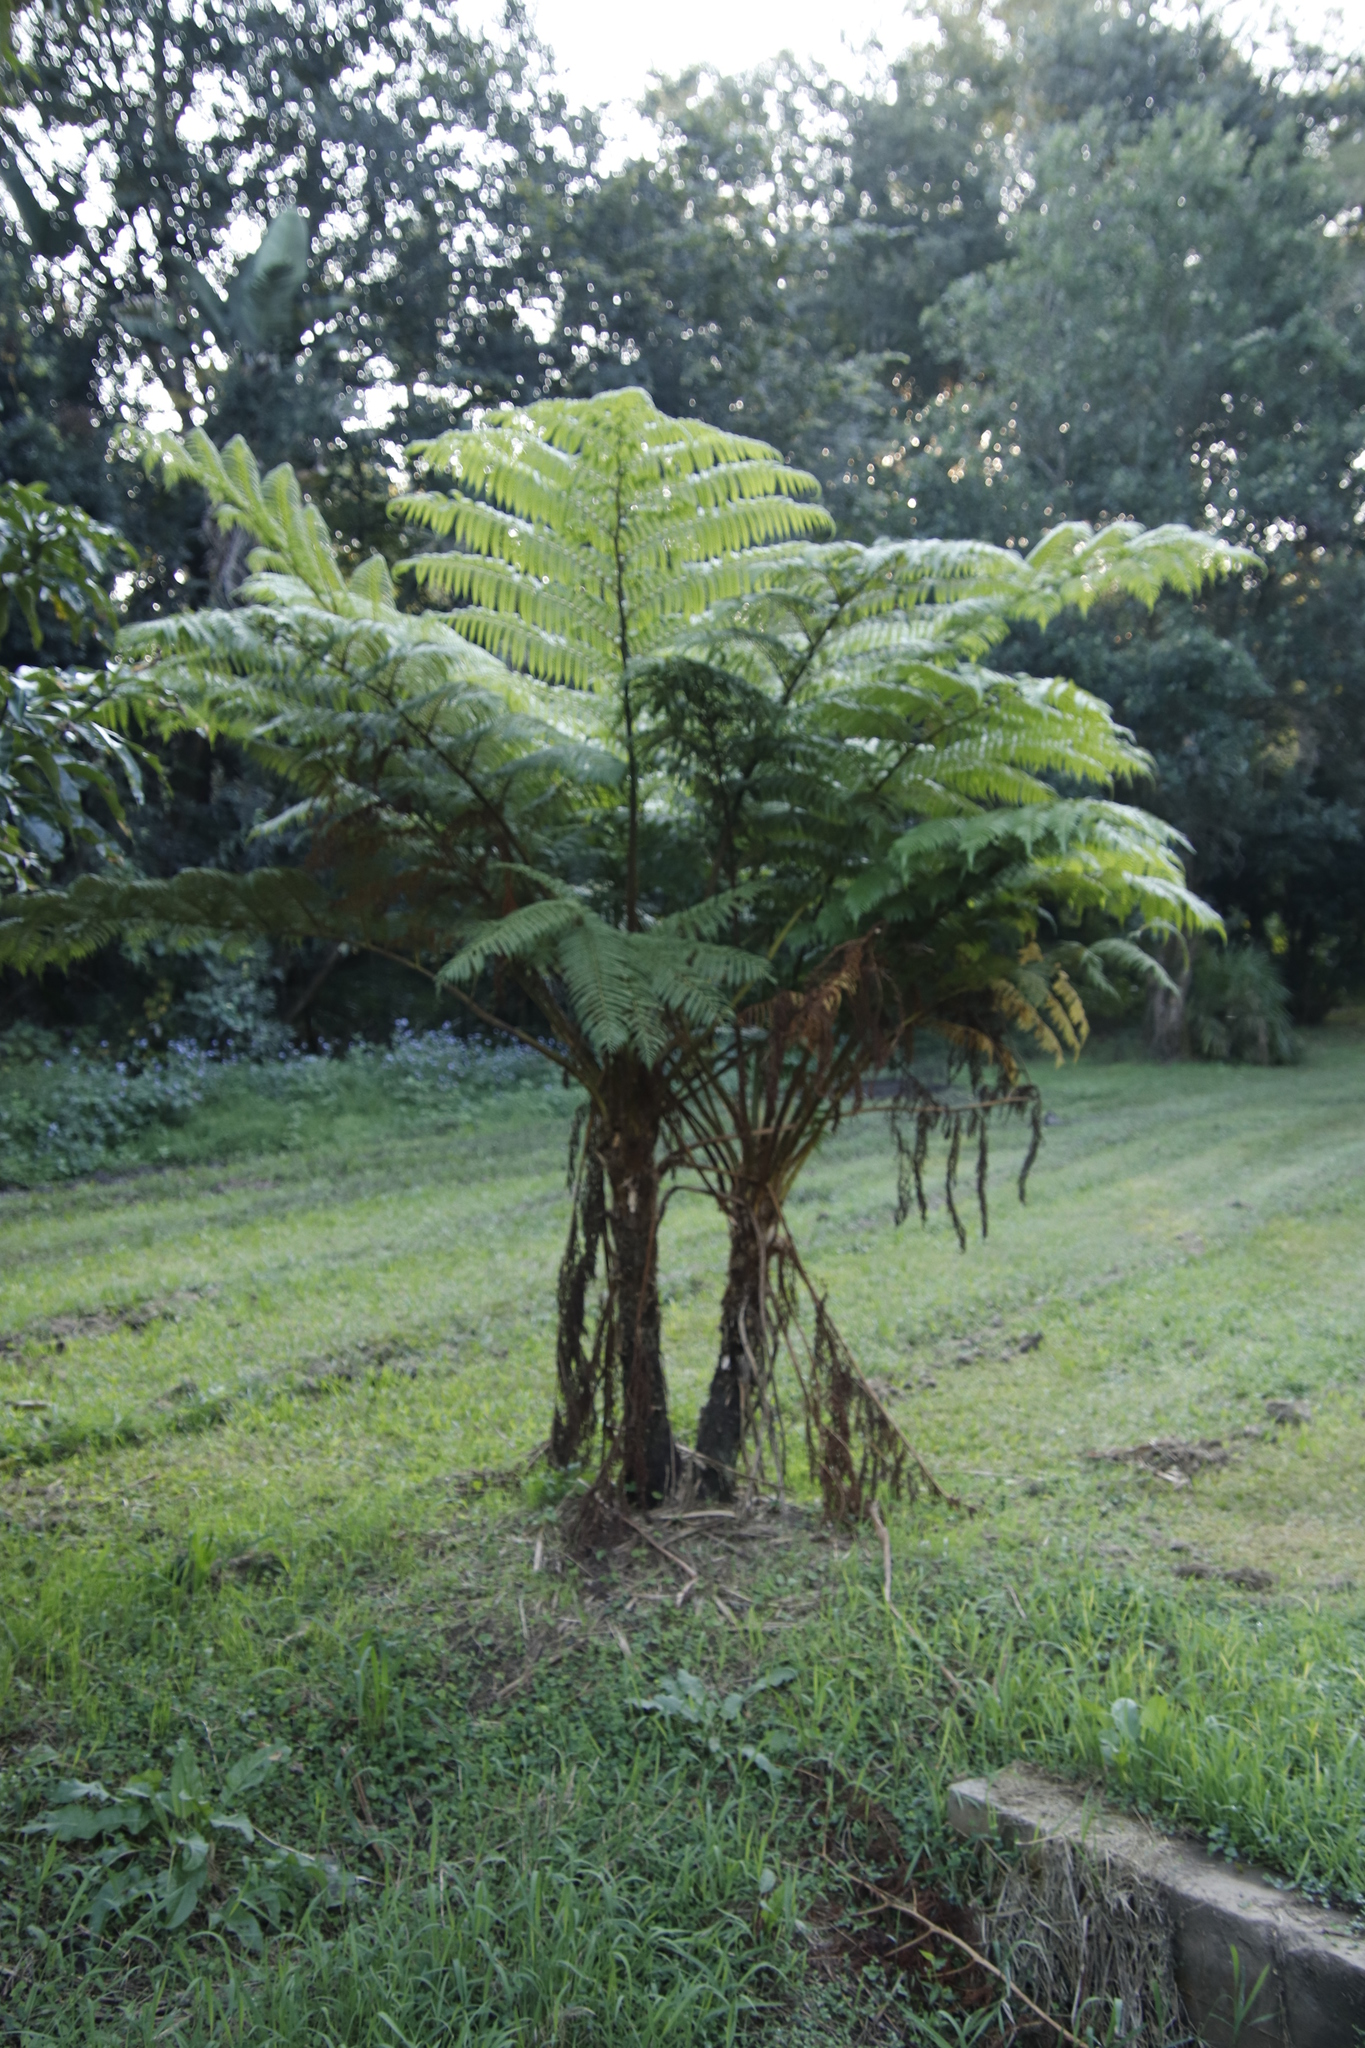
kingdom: Plantae
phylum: Tracheophyta
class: Polypodiopsida
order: Cyatheales
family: Cyatheaceae
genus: Sphaeropteris
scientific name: Sphaeropteris cooperi
